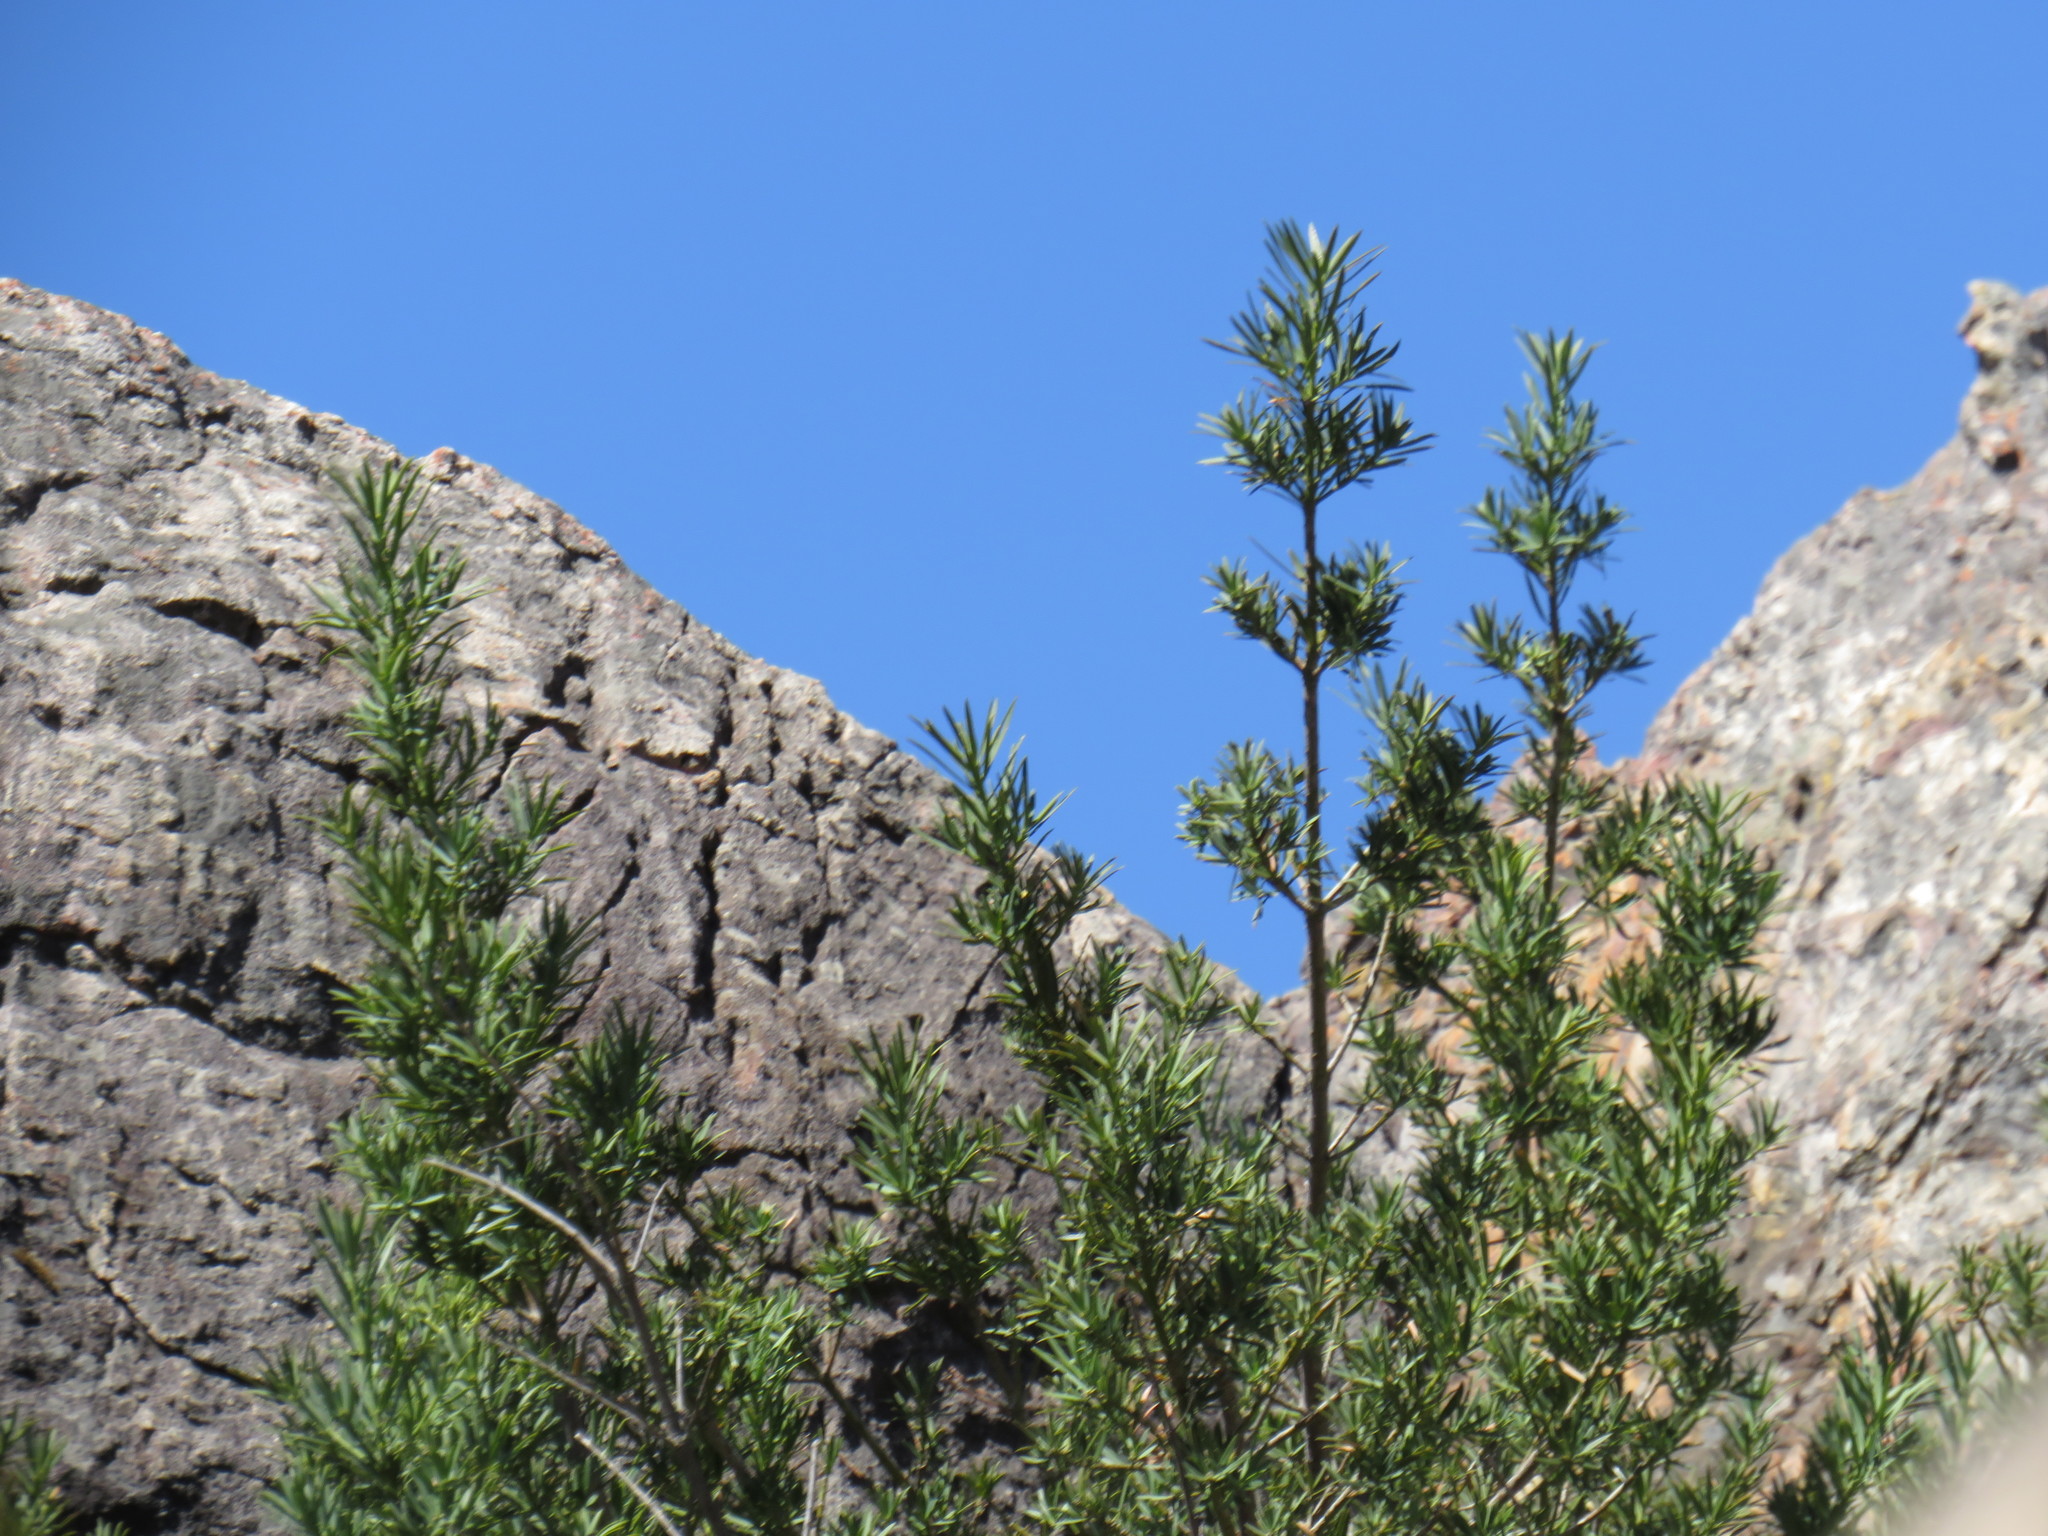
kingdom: Plantae
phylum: Tracheophyta
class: Pinopsida
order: Pinales
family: Podocarpaceae
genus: Podocarpus
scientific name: Podocarpus elongatus
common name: Breede river yellowwood
